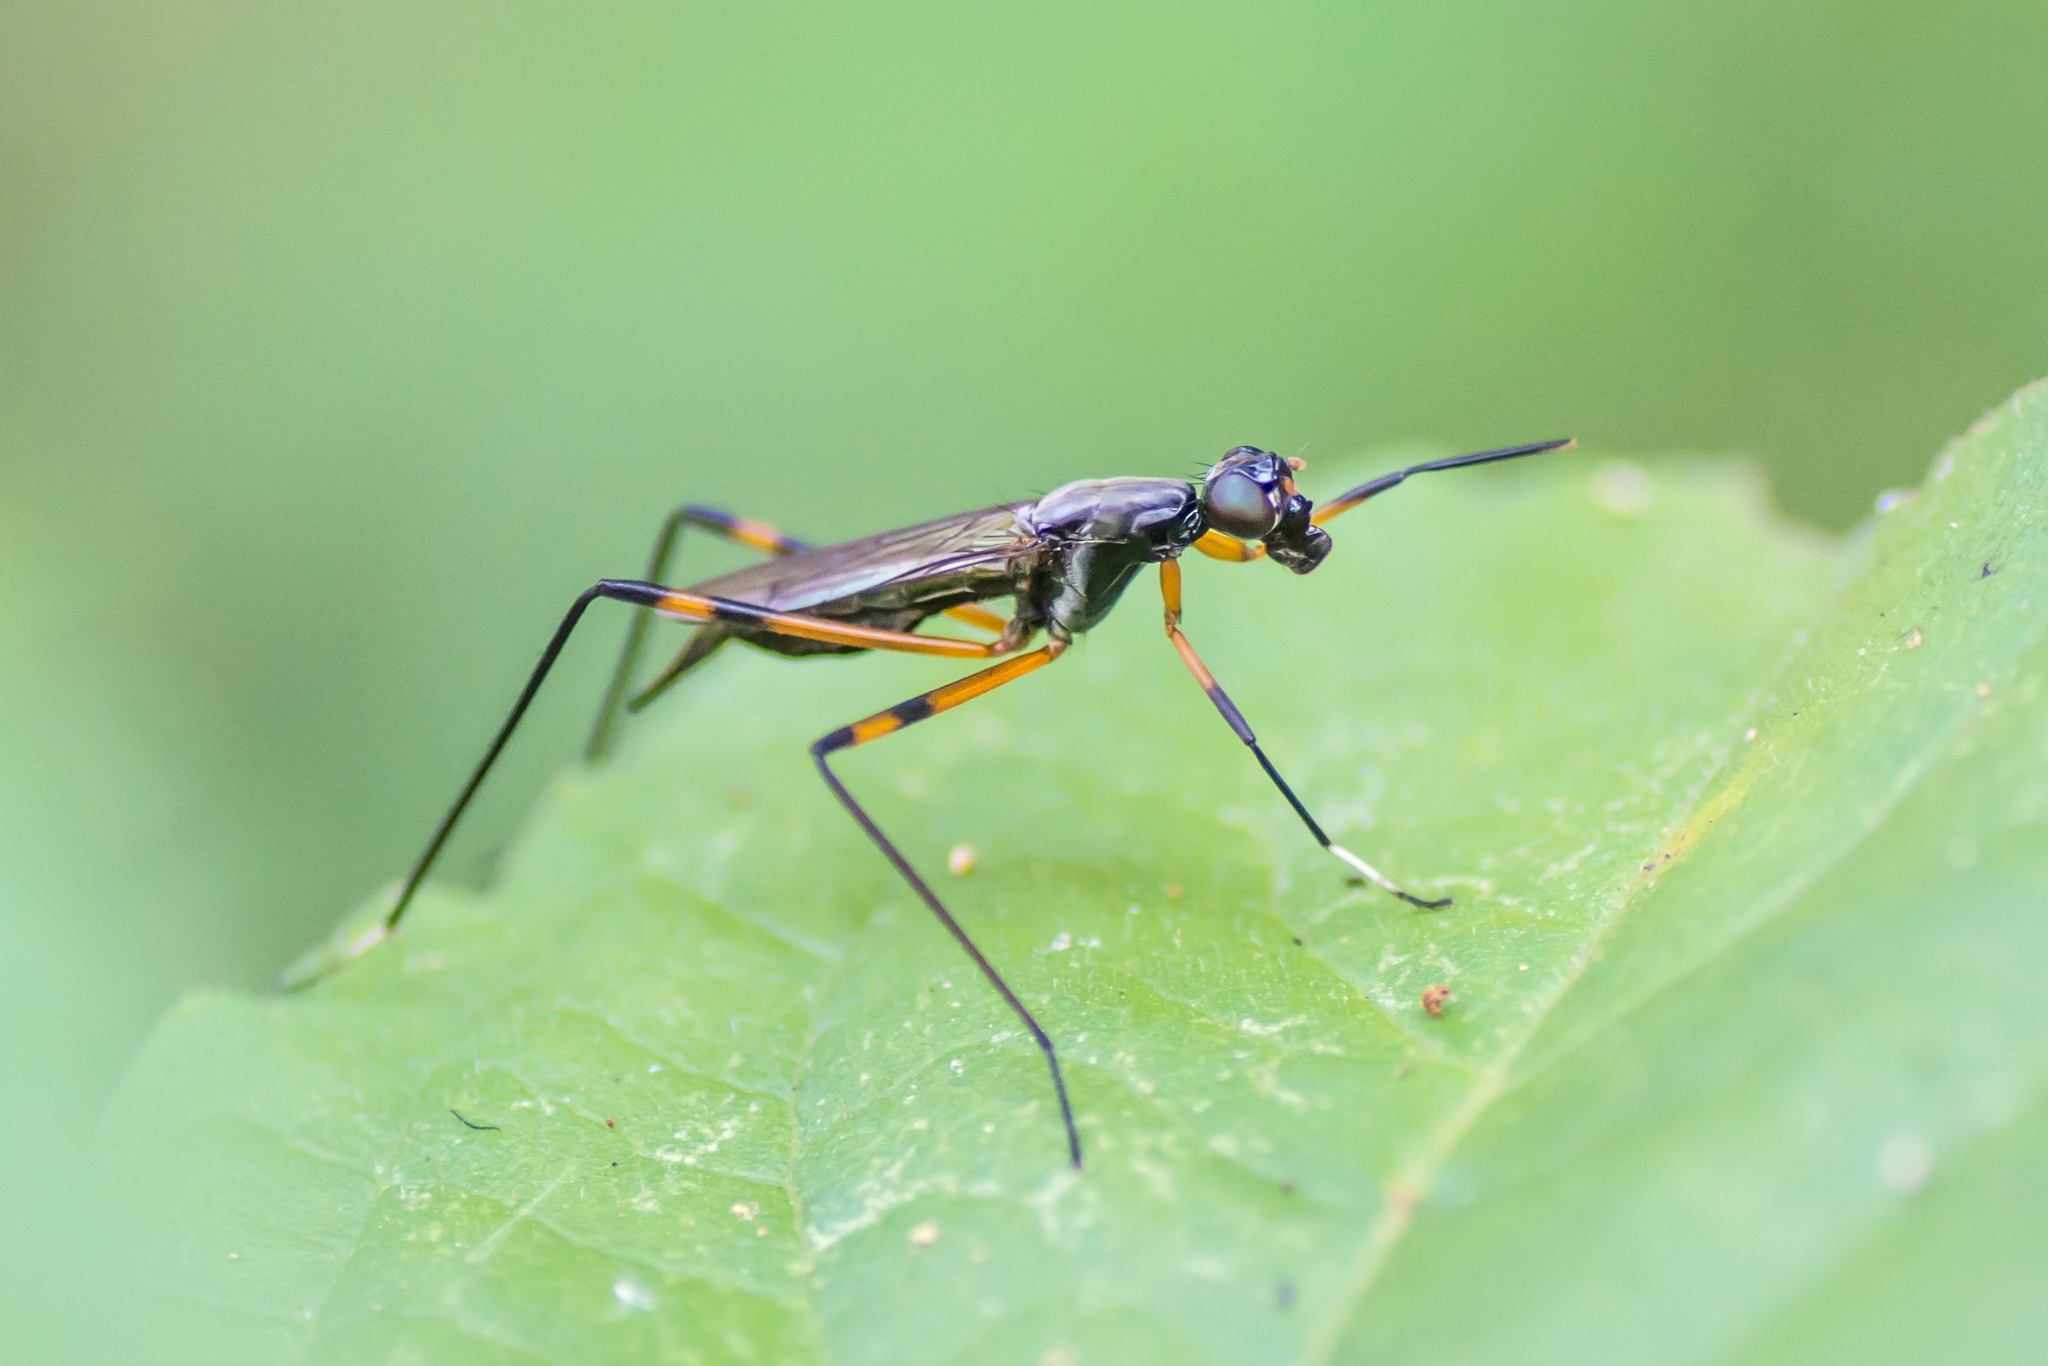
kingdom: Animalia
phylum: Arthropoda
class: Insecta
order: Diptera
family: Micropezidae
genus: Calobatina
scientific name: Calobatina geometra
